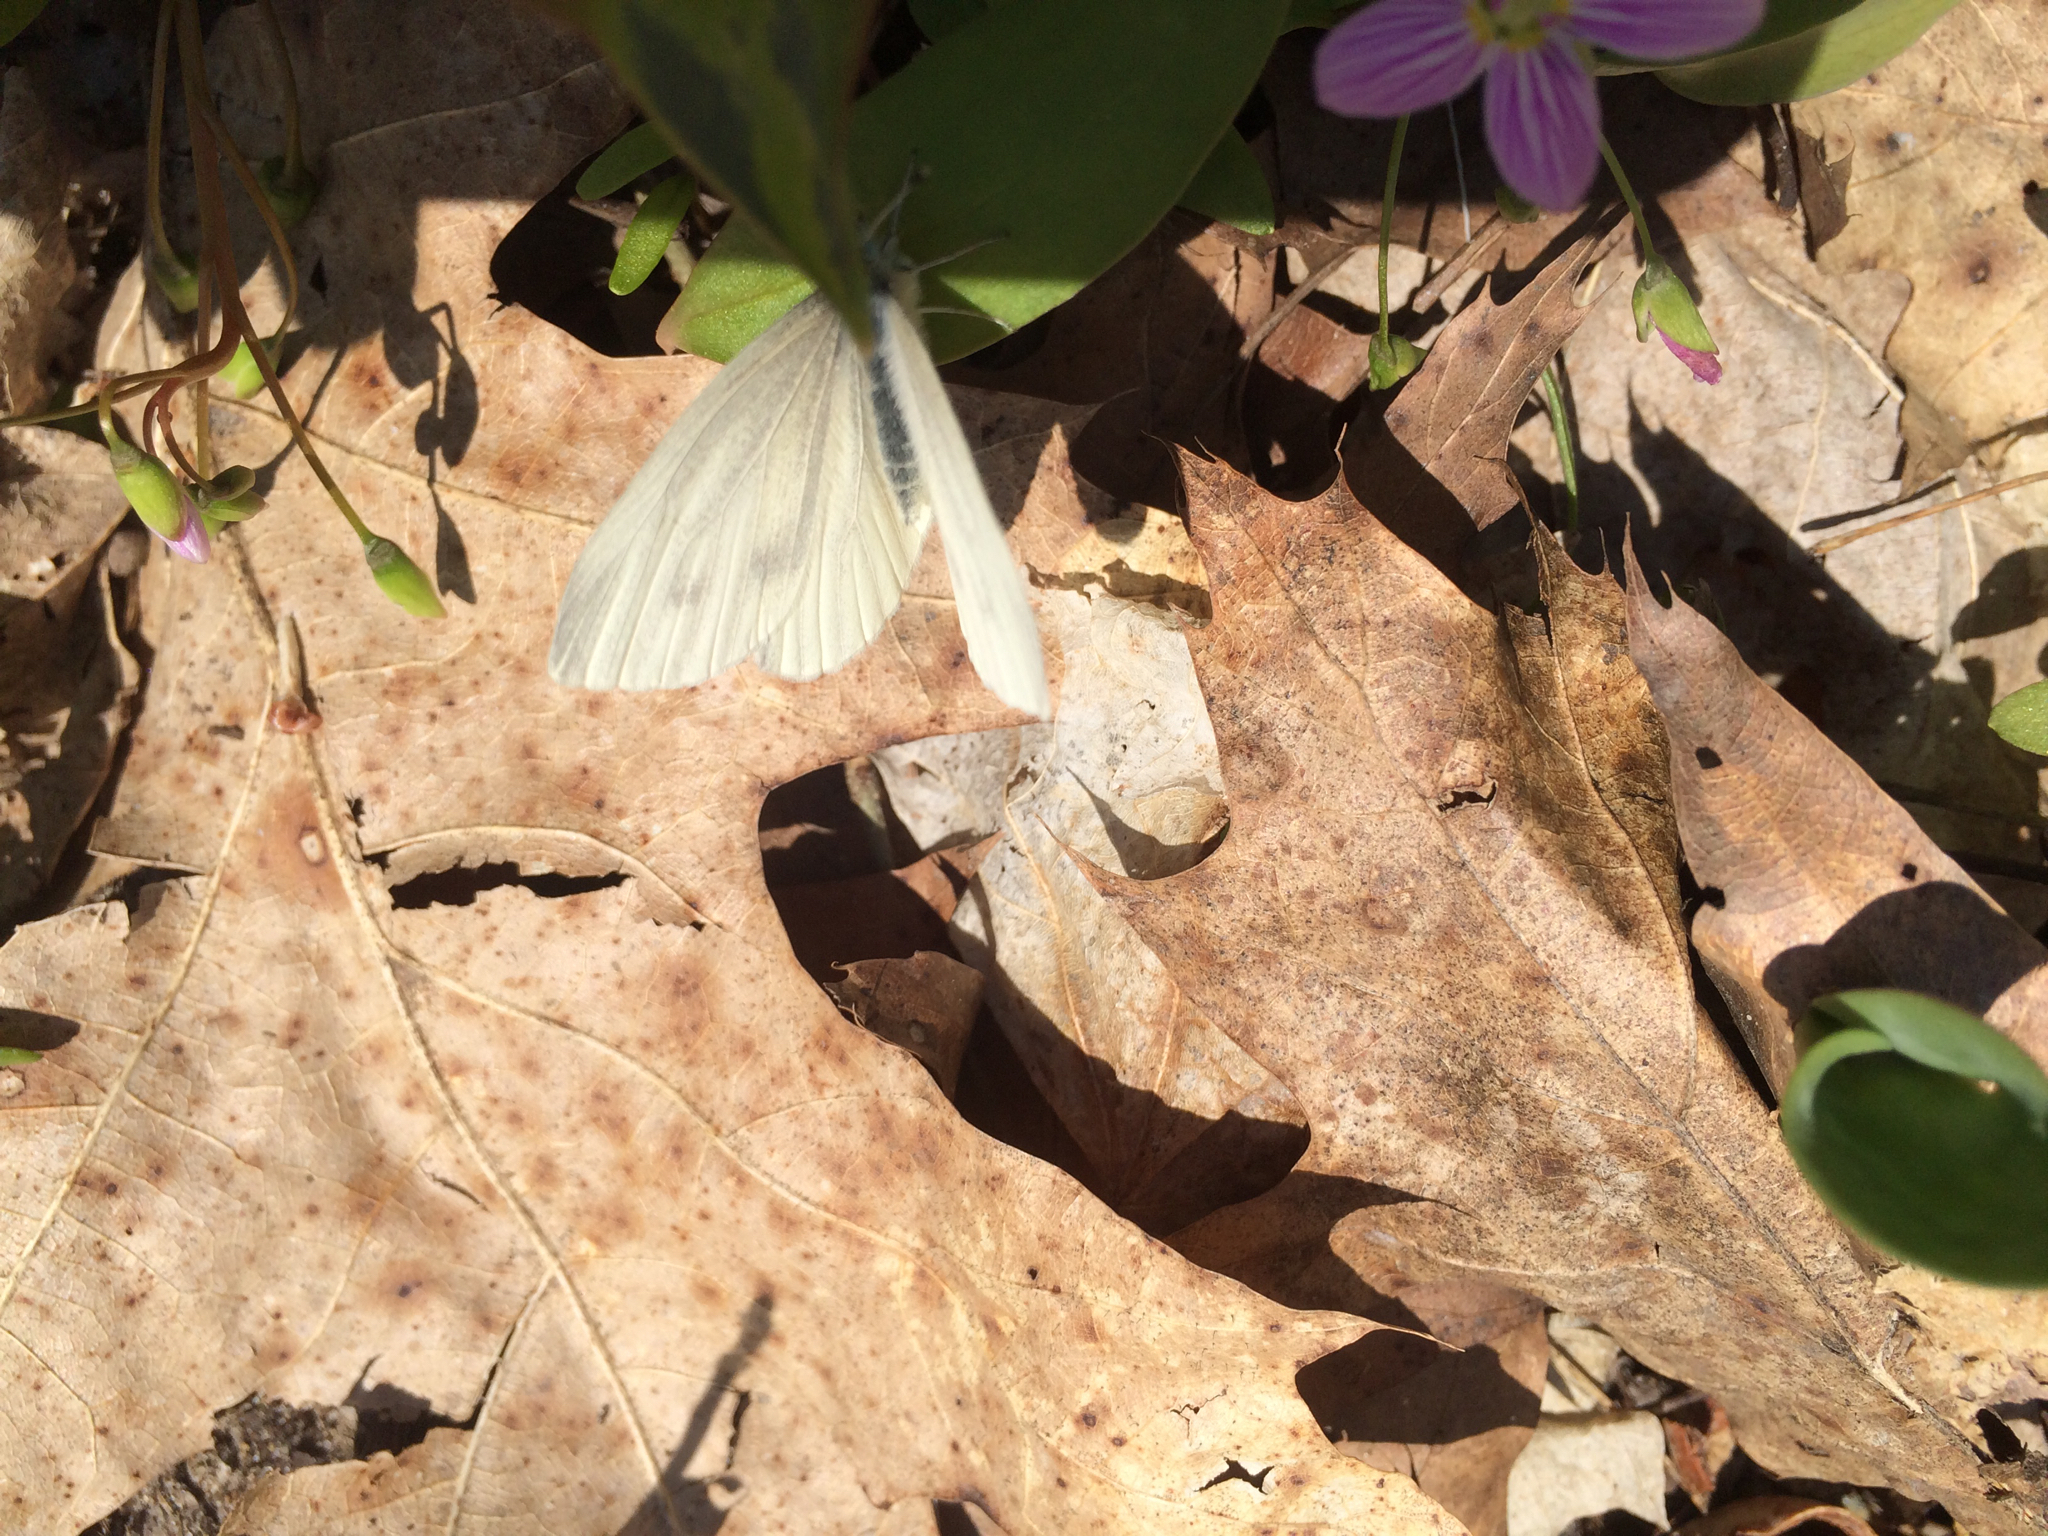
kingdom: Animalia
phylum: Arthropoda
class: Insecta
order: Lepidoptera
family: Pieridae
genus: Pieris
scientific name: Pieris rapae
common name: Small white
